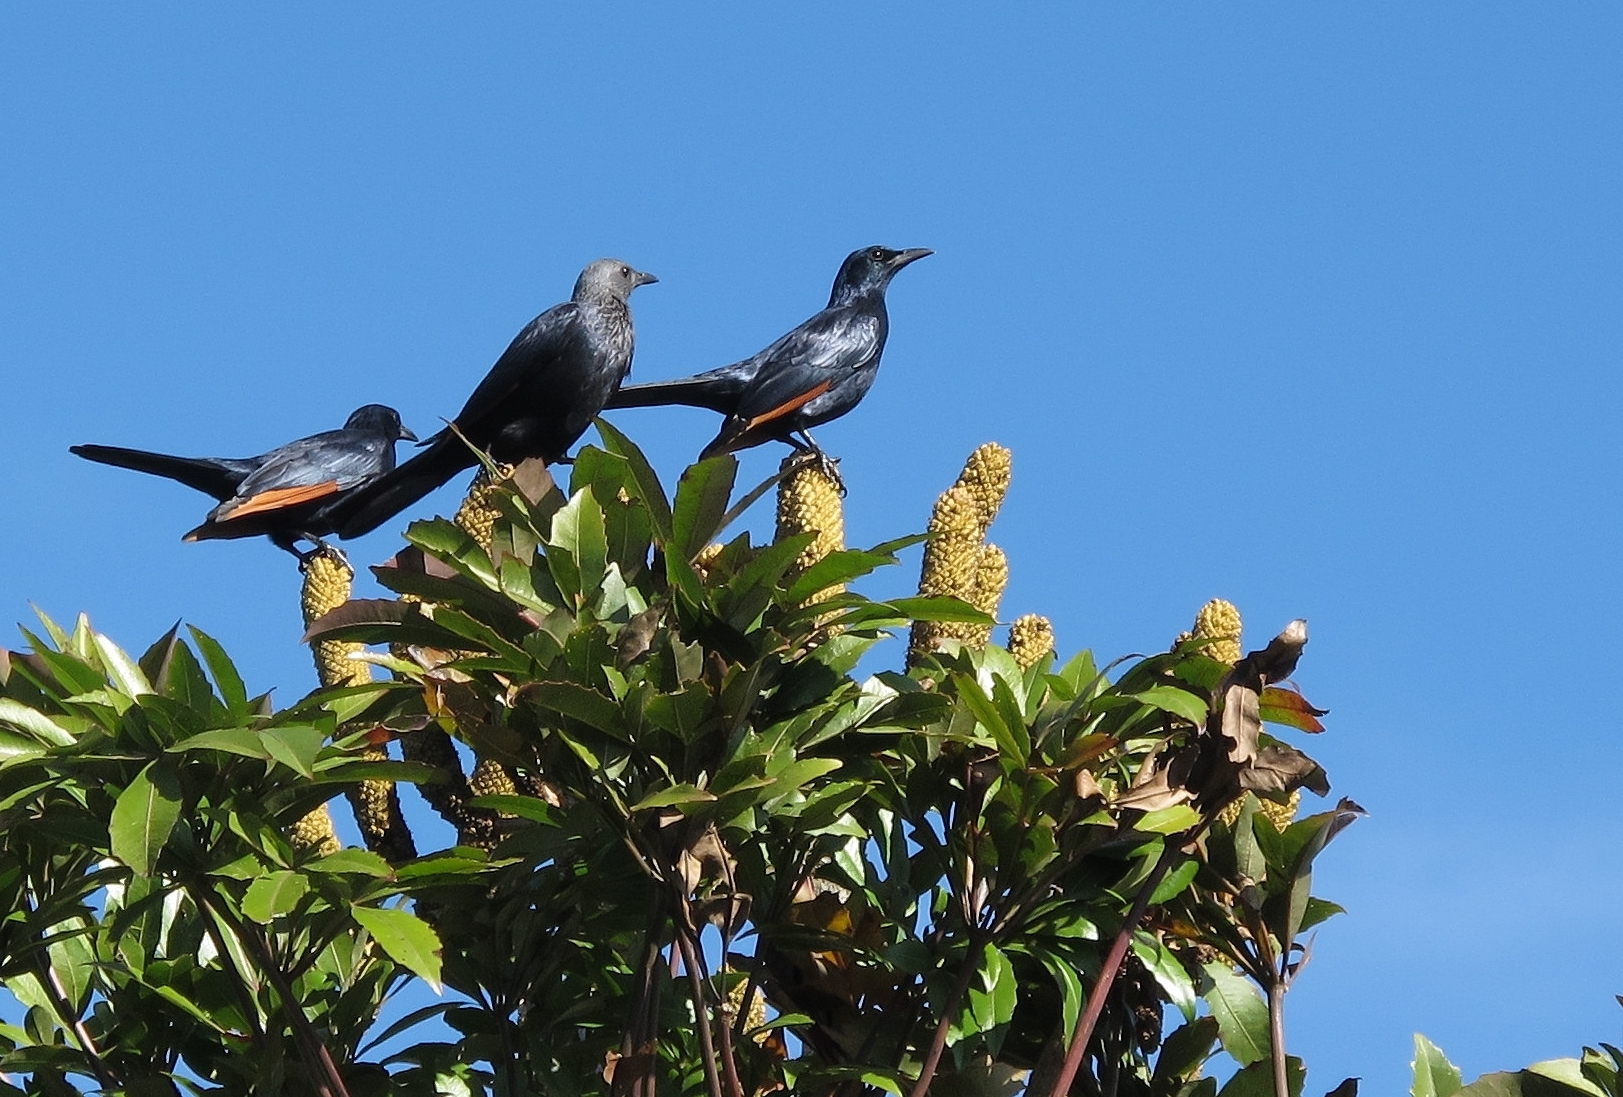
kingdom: Animalia
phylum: Chordata
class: Aves
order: Passeriformes
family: Sturnidae
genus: Onychognathus
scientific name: Onychognathus morio
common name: Red-winged starling
